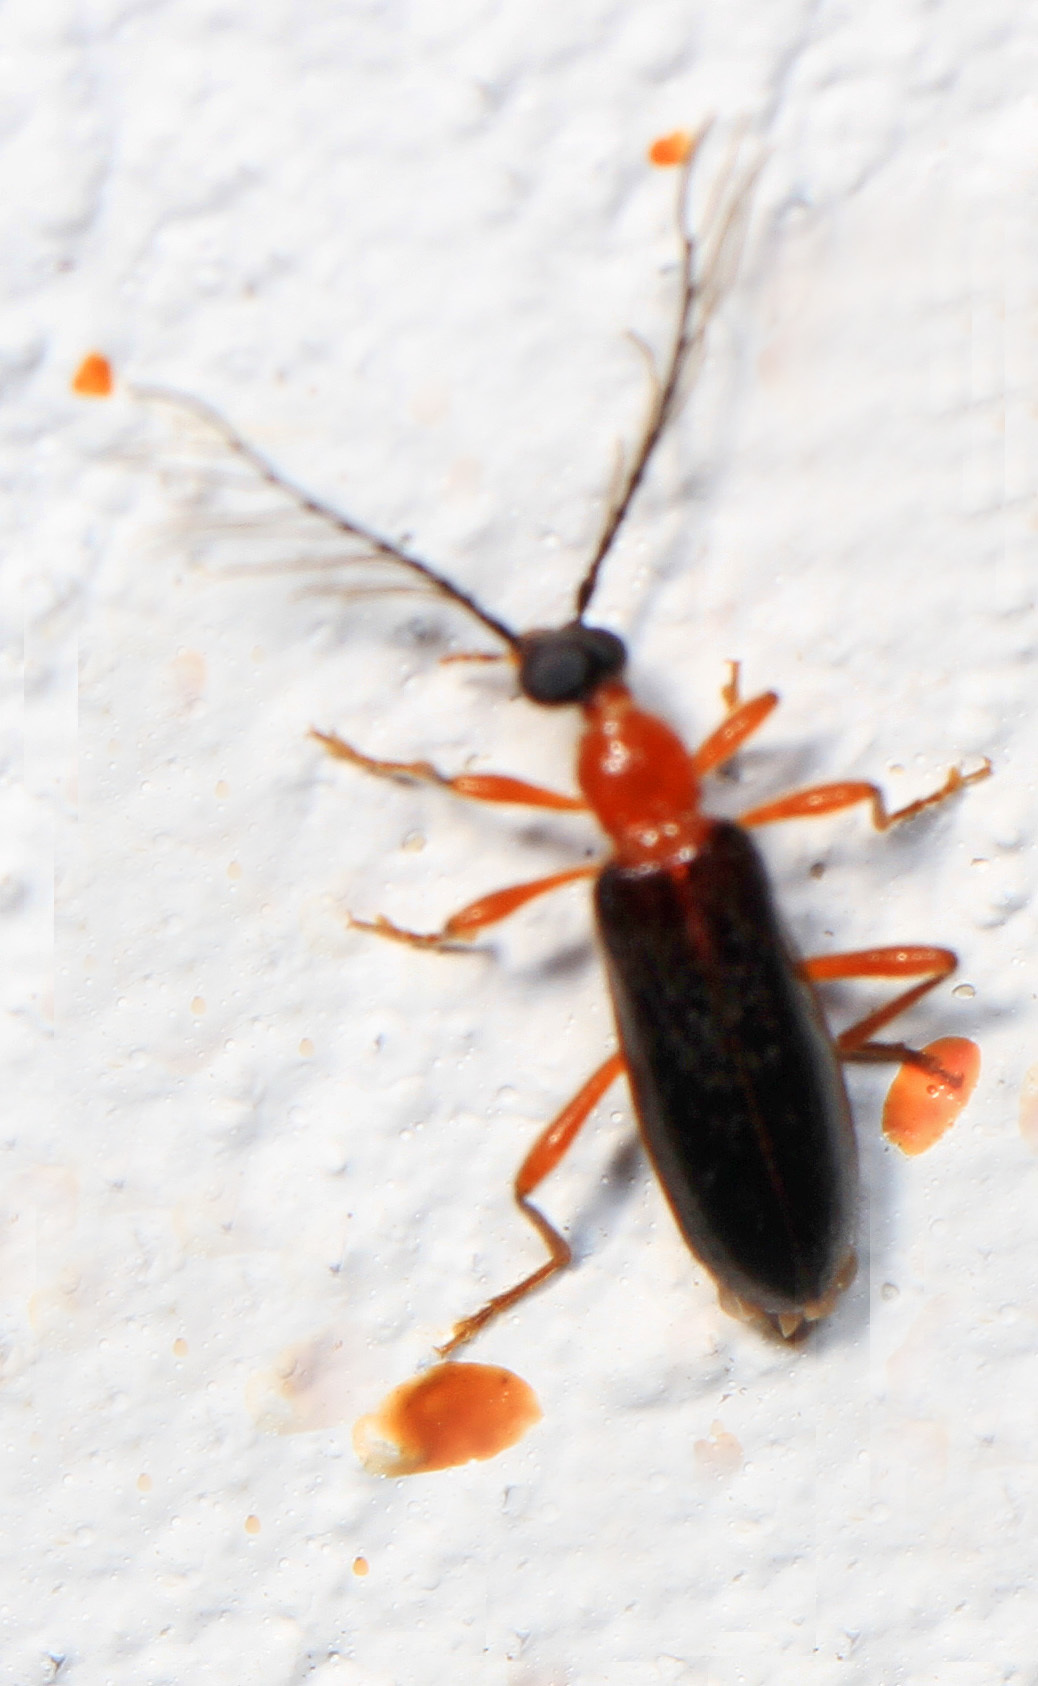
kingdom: Animalia
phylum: Arthropoda
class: Insecta
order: Coleoptera
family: Pyrochroidae
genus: Dendroides
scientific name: Dendroides canadensis
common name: Canada fire-colored beetle
